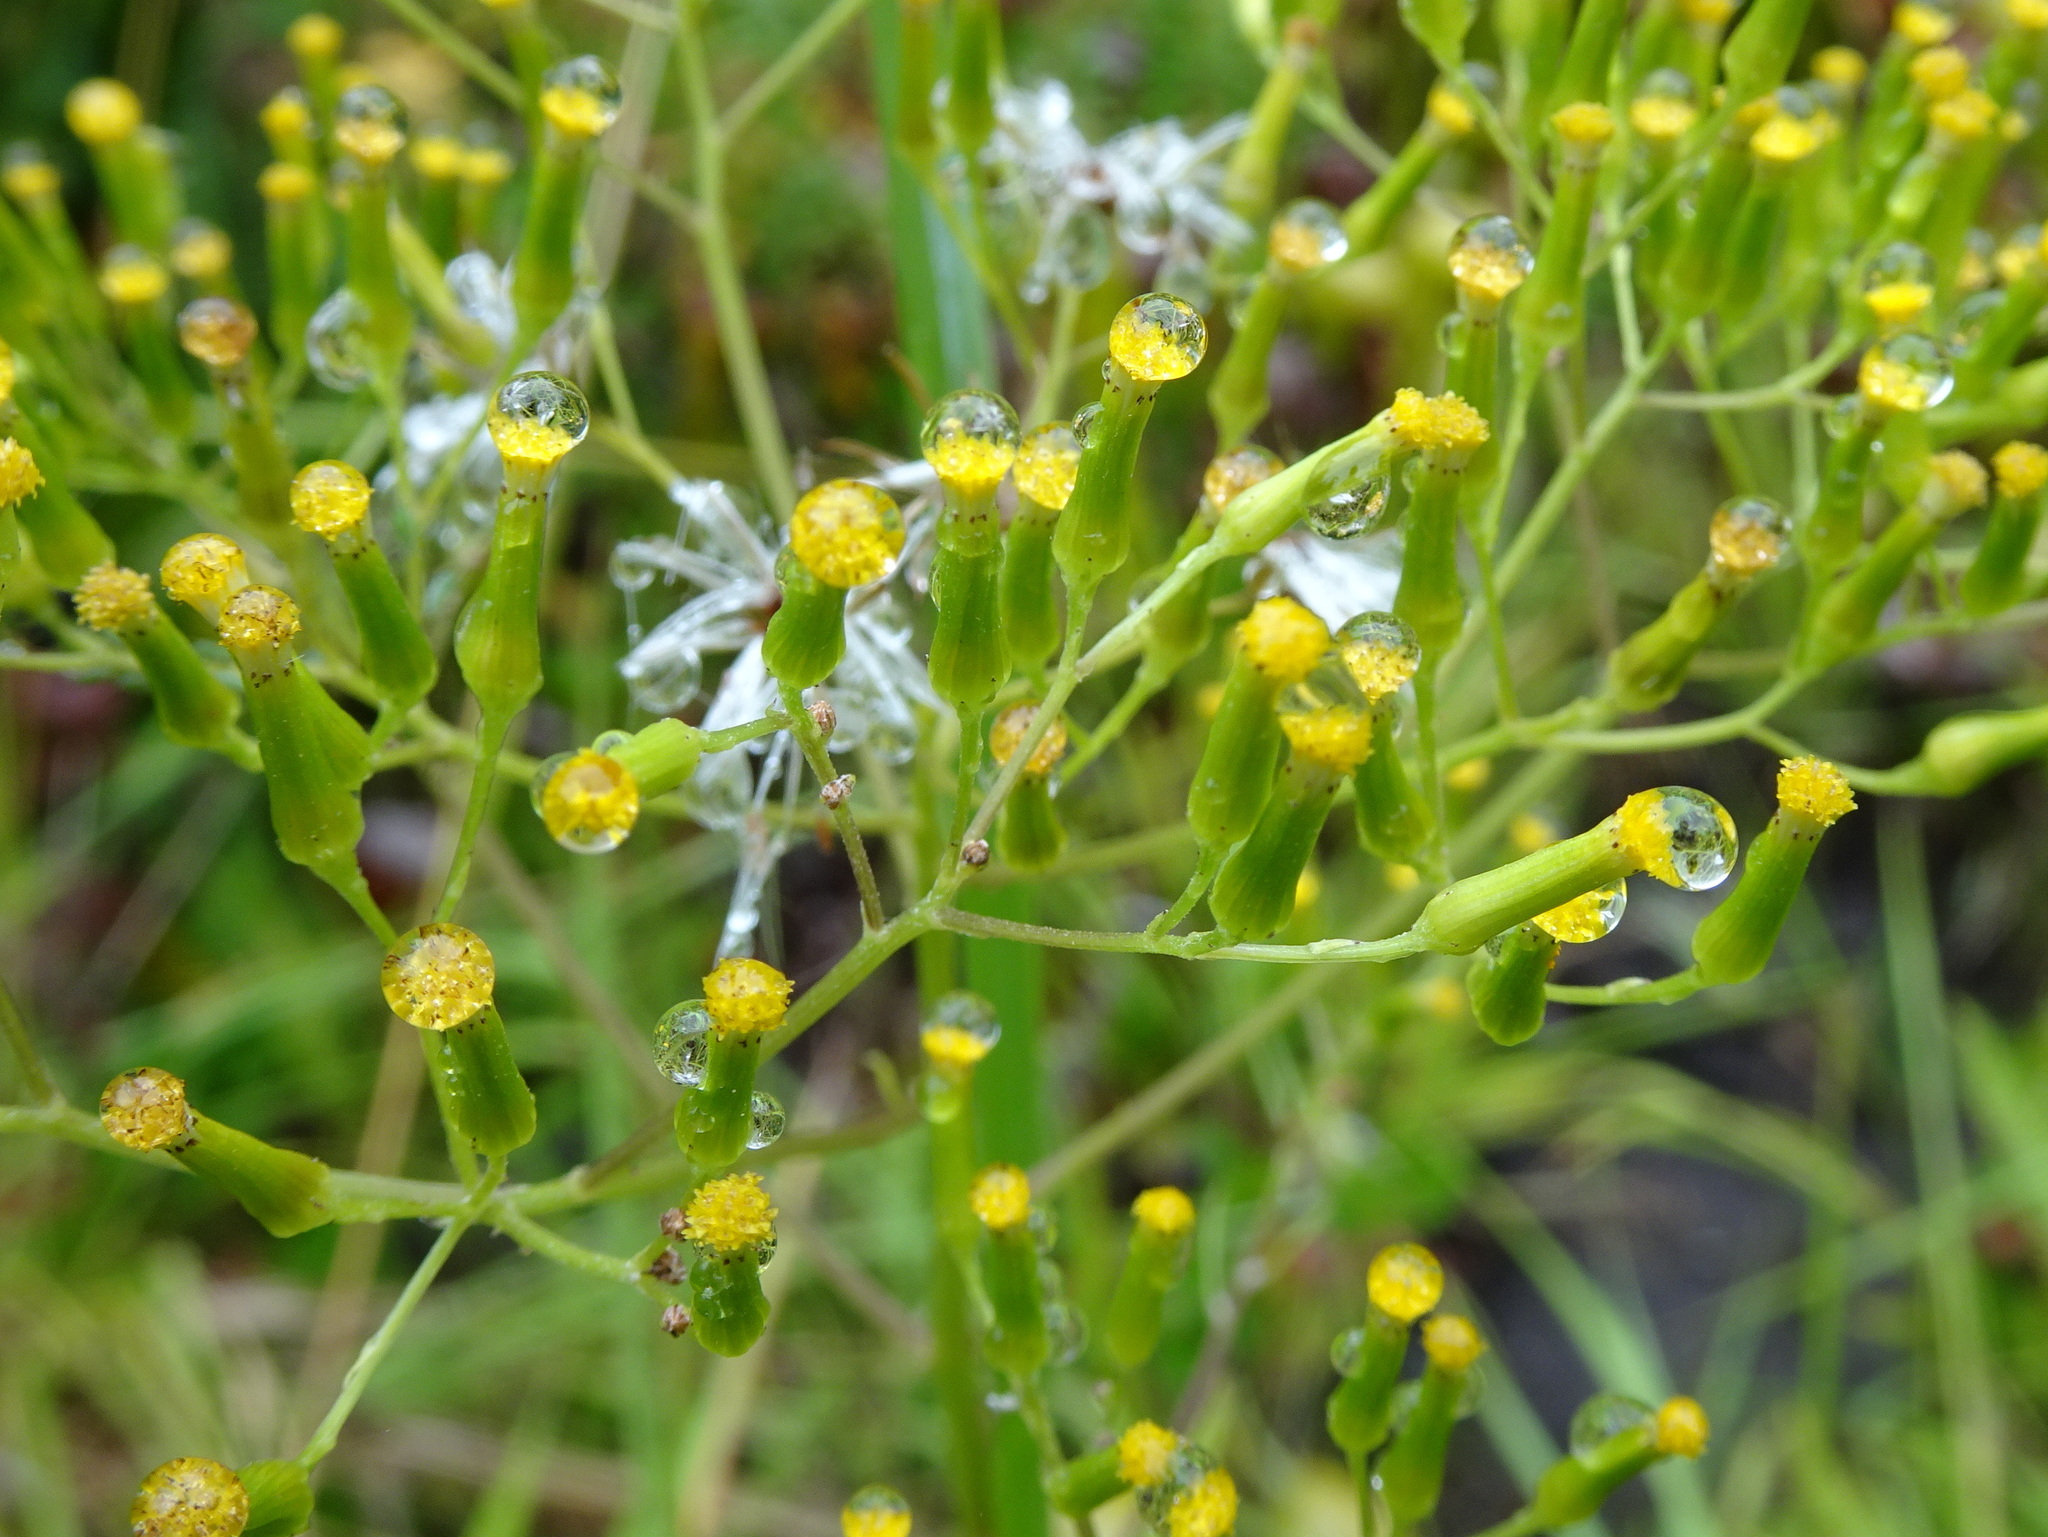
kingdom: Plantae
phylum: Tracheophyta
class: Magnoliopsida
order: Asterales
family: Asteraceae
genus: Senecio
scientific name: Senecio minimus
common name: Toothed fireweed
